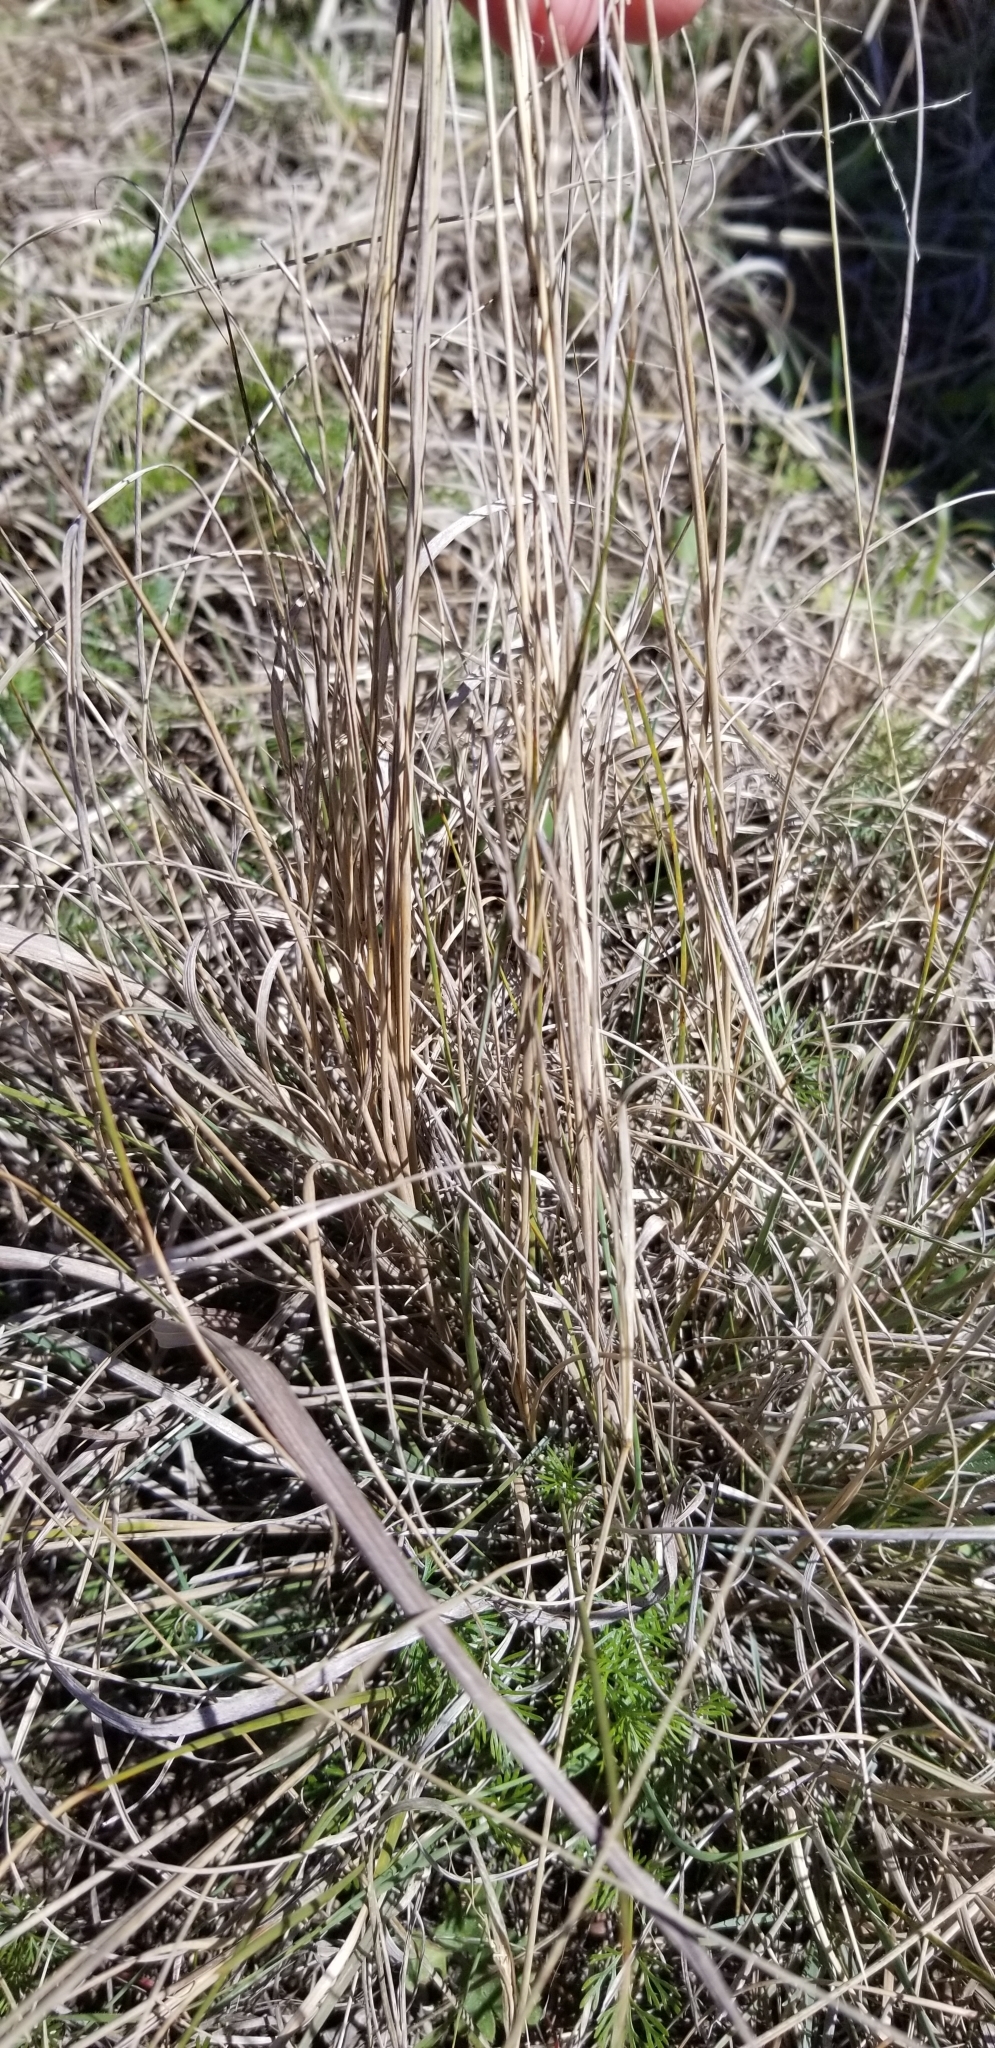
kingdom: Plantae
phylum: Tracheophyta
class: Liliopsida
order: Poales
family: Poaceae
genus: Muhlenbergia
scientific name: Muhlenbergia reverchonii
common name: Seep muhly
